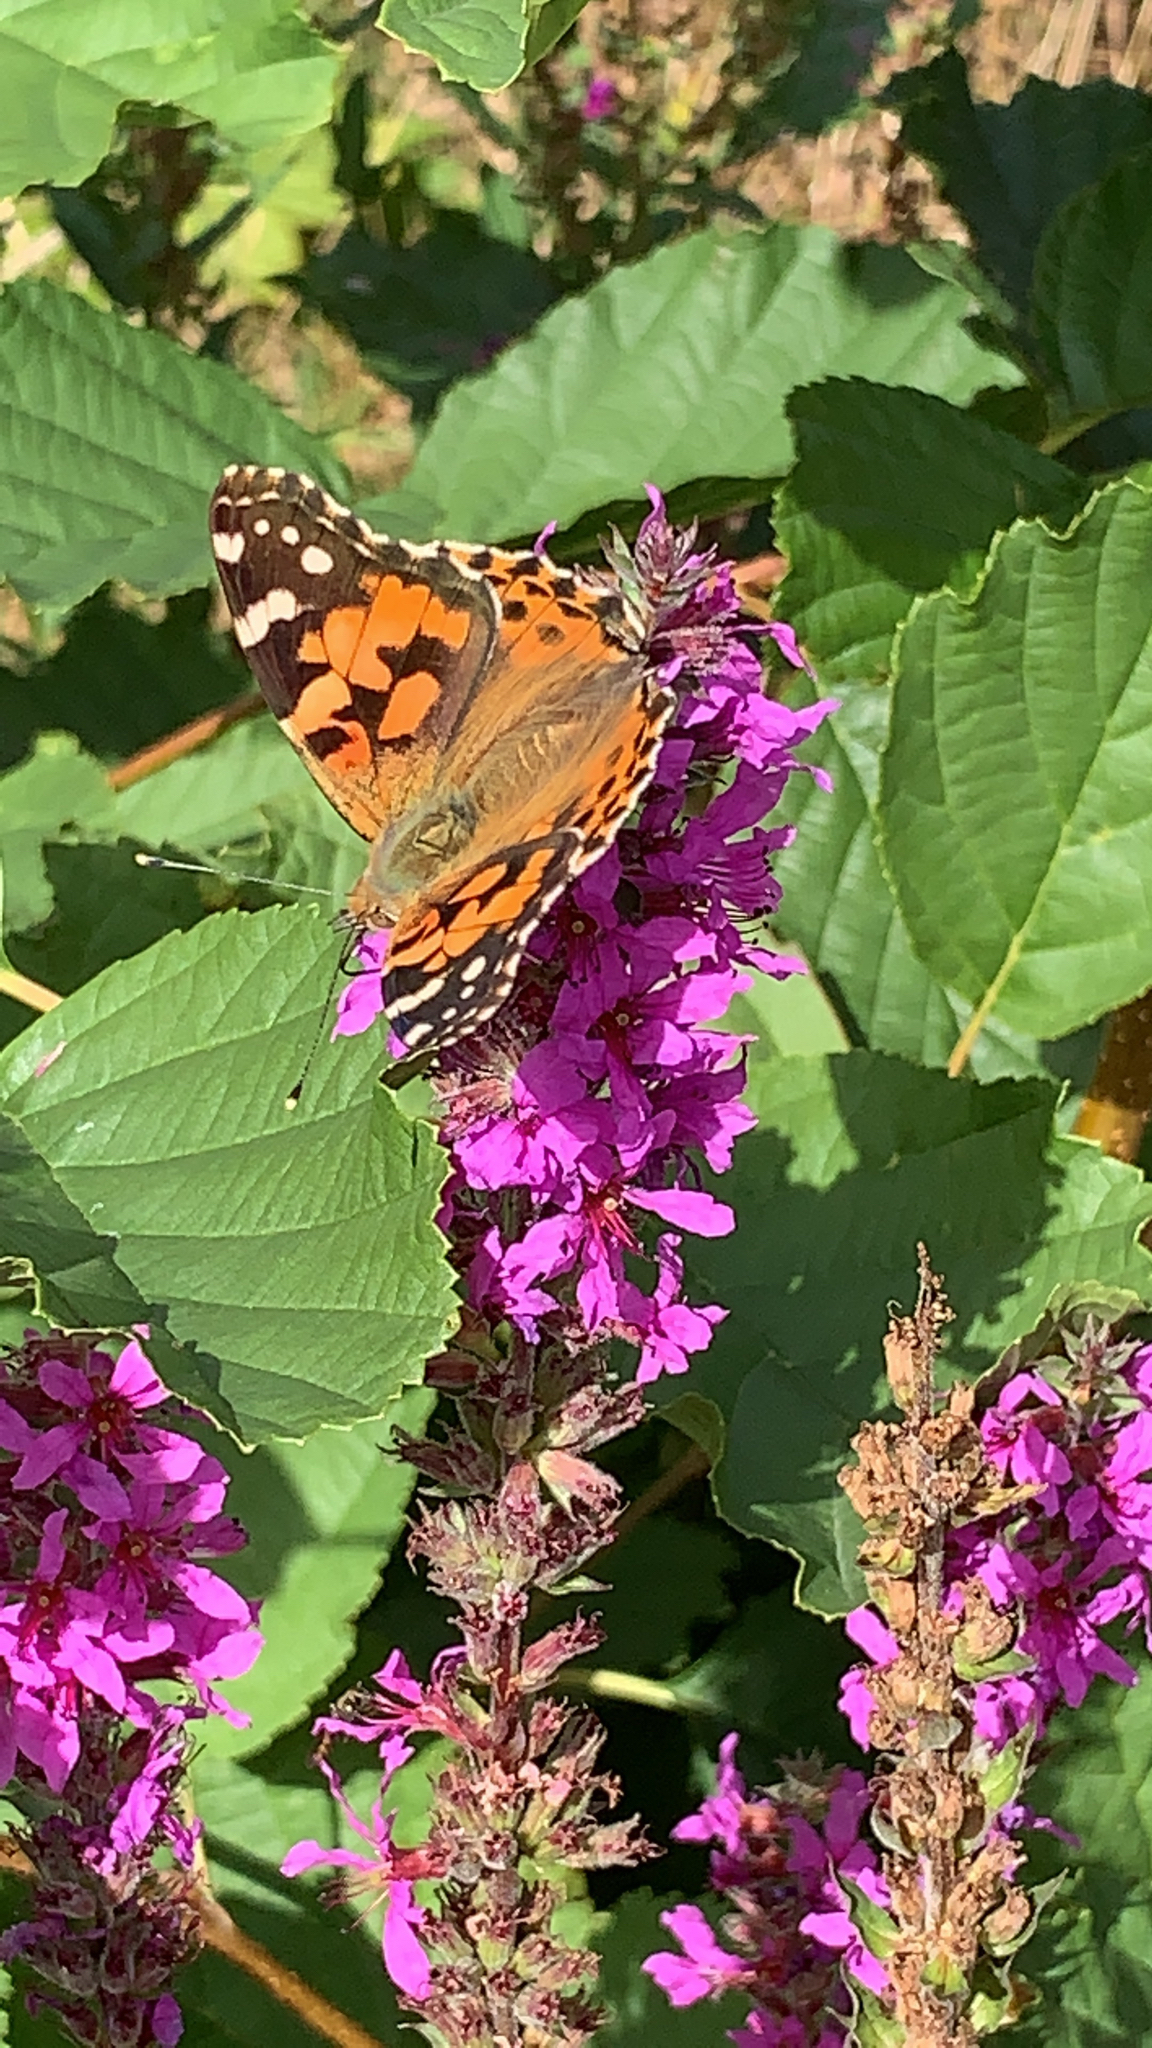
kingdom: Animalia
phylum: Arthropoda
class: Insecta
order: Lepidoptera
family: Nymphalidae
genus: Vanessa
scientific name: Vanessa cardui
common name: Painted lady
